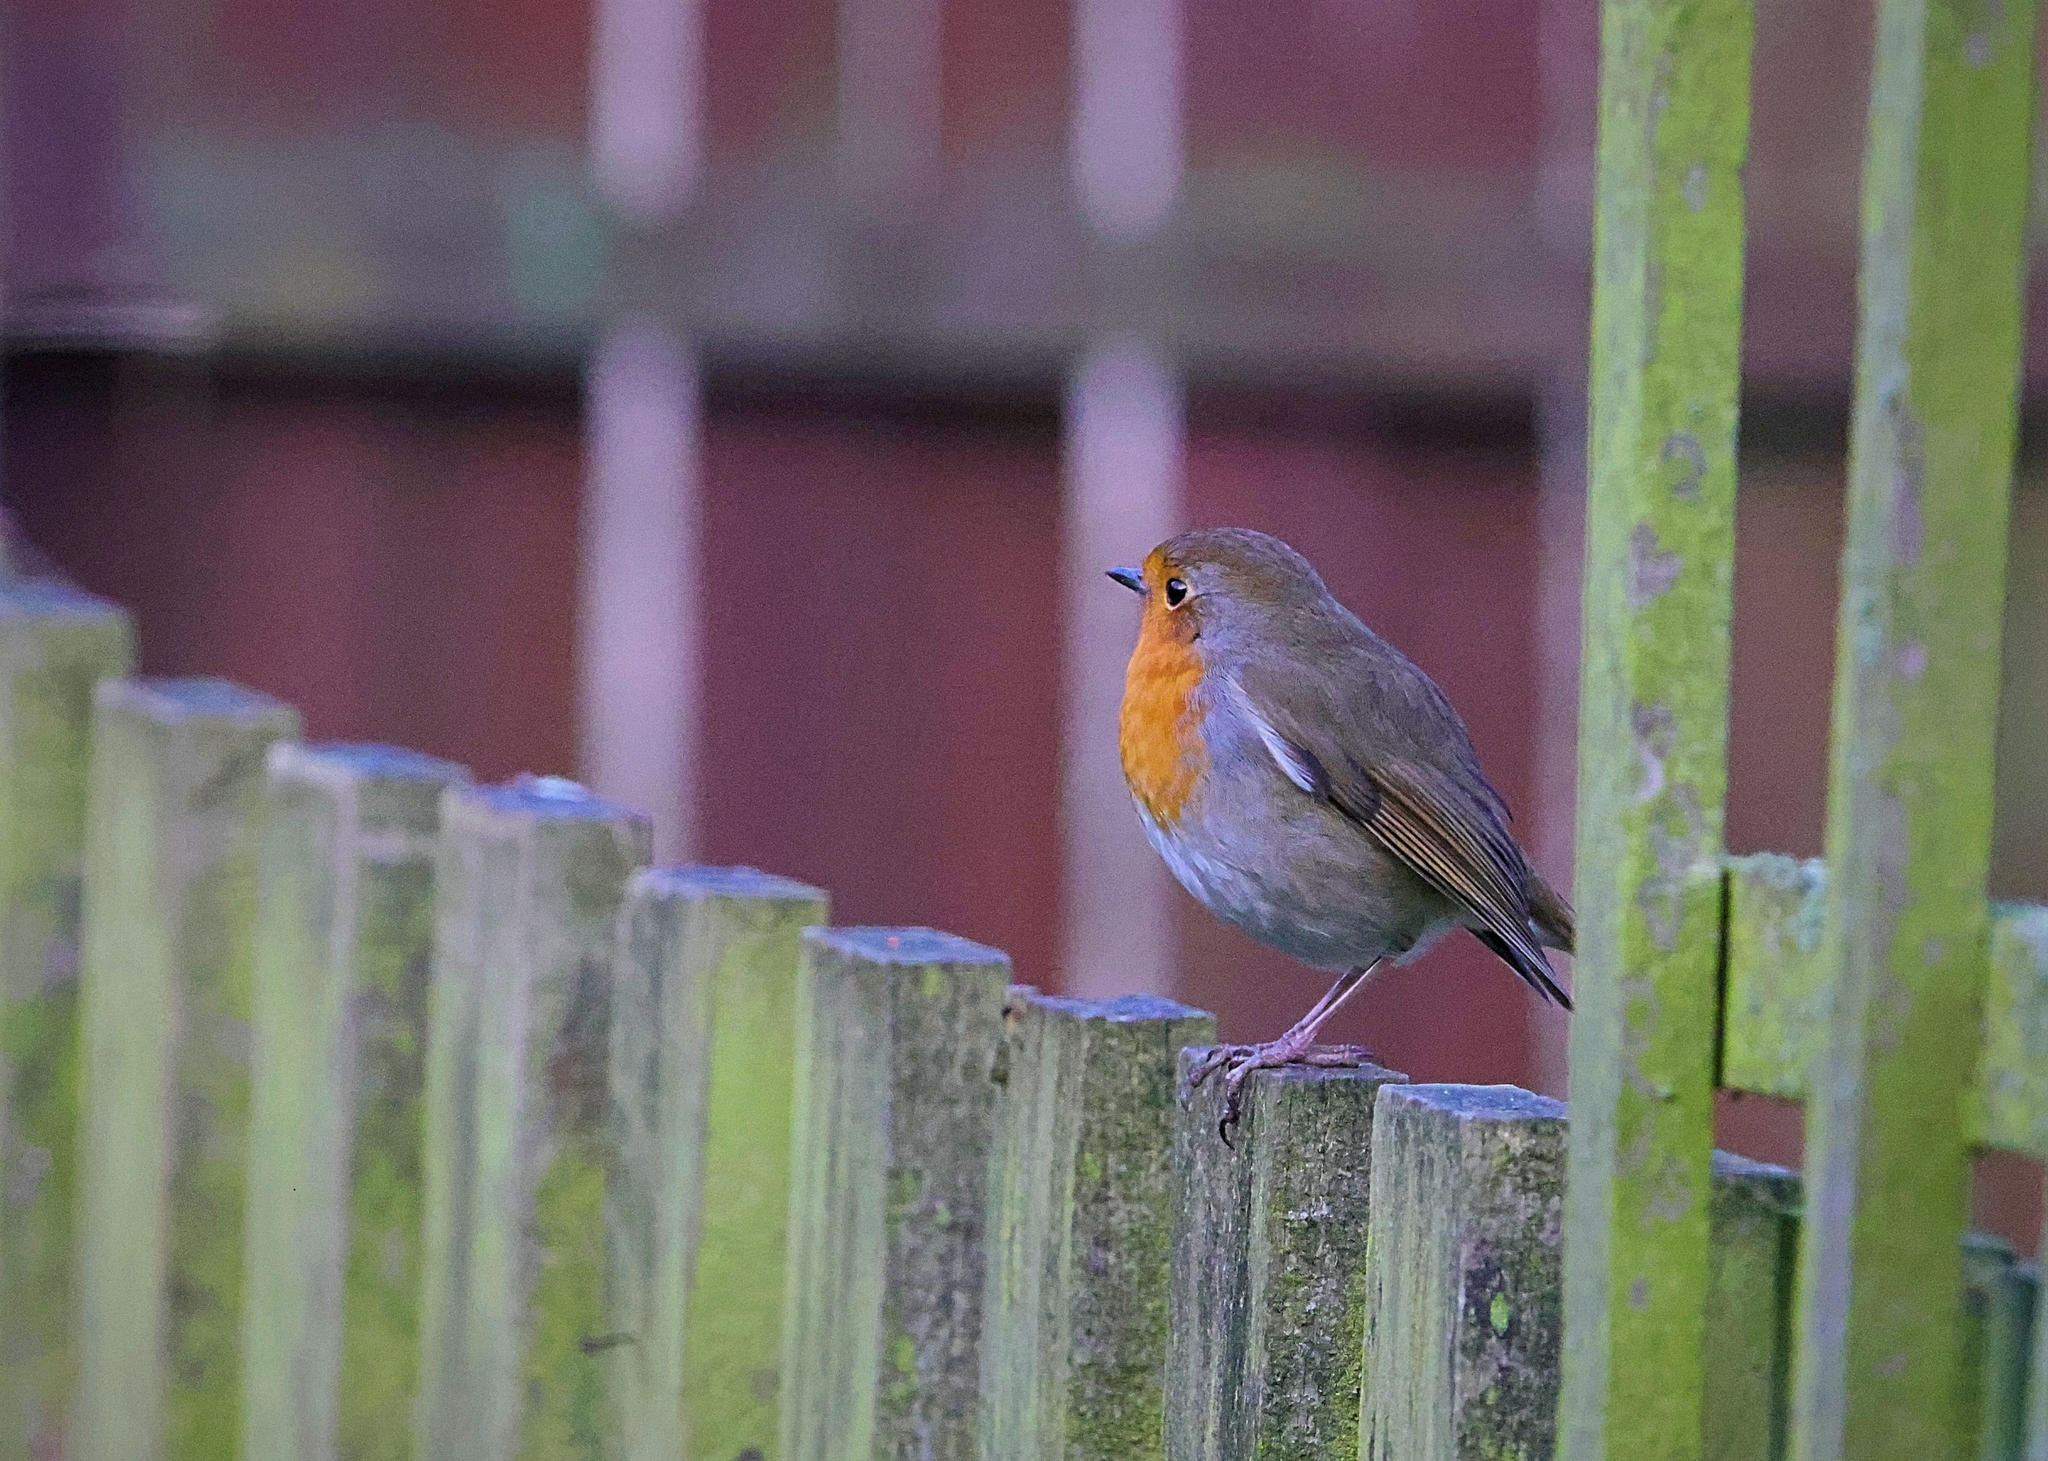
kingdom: Animalia
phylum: Chordata
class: Aves
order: Passeriformes
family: Muscicapidae
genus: Erithacus
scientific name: Erithacus rubecula
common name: European robin
